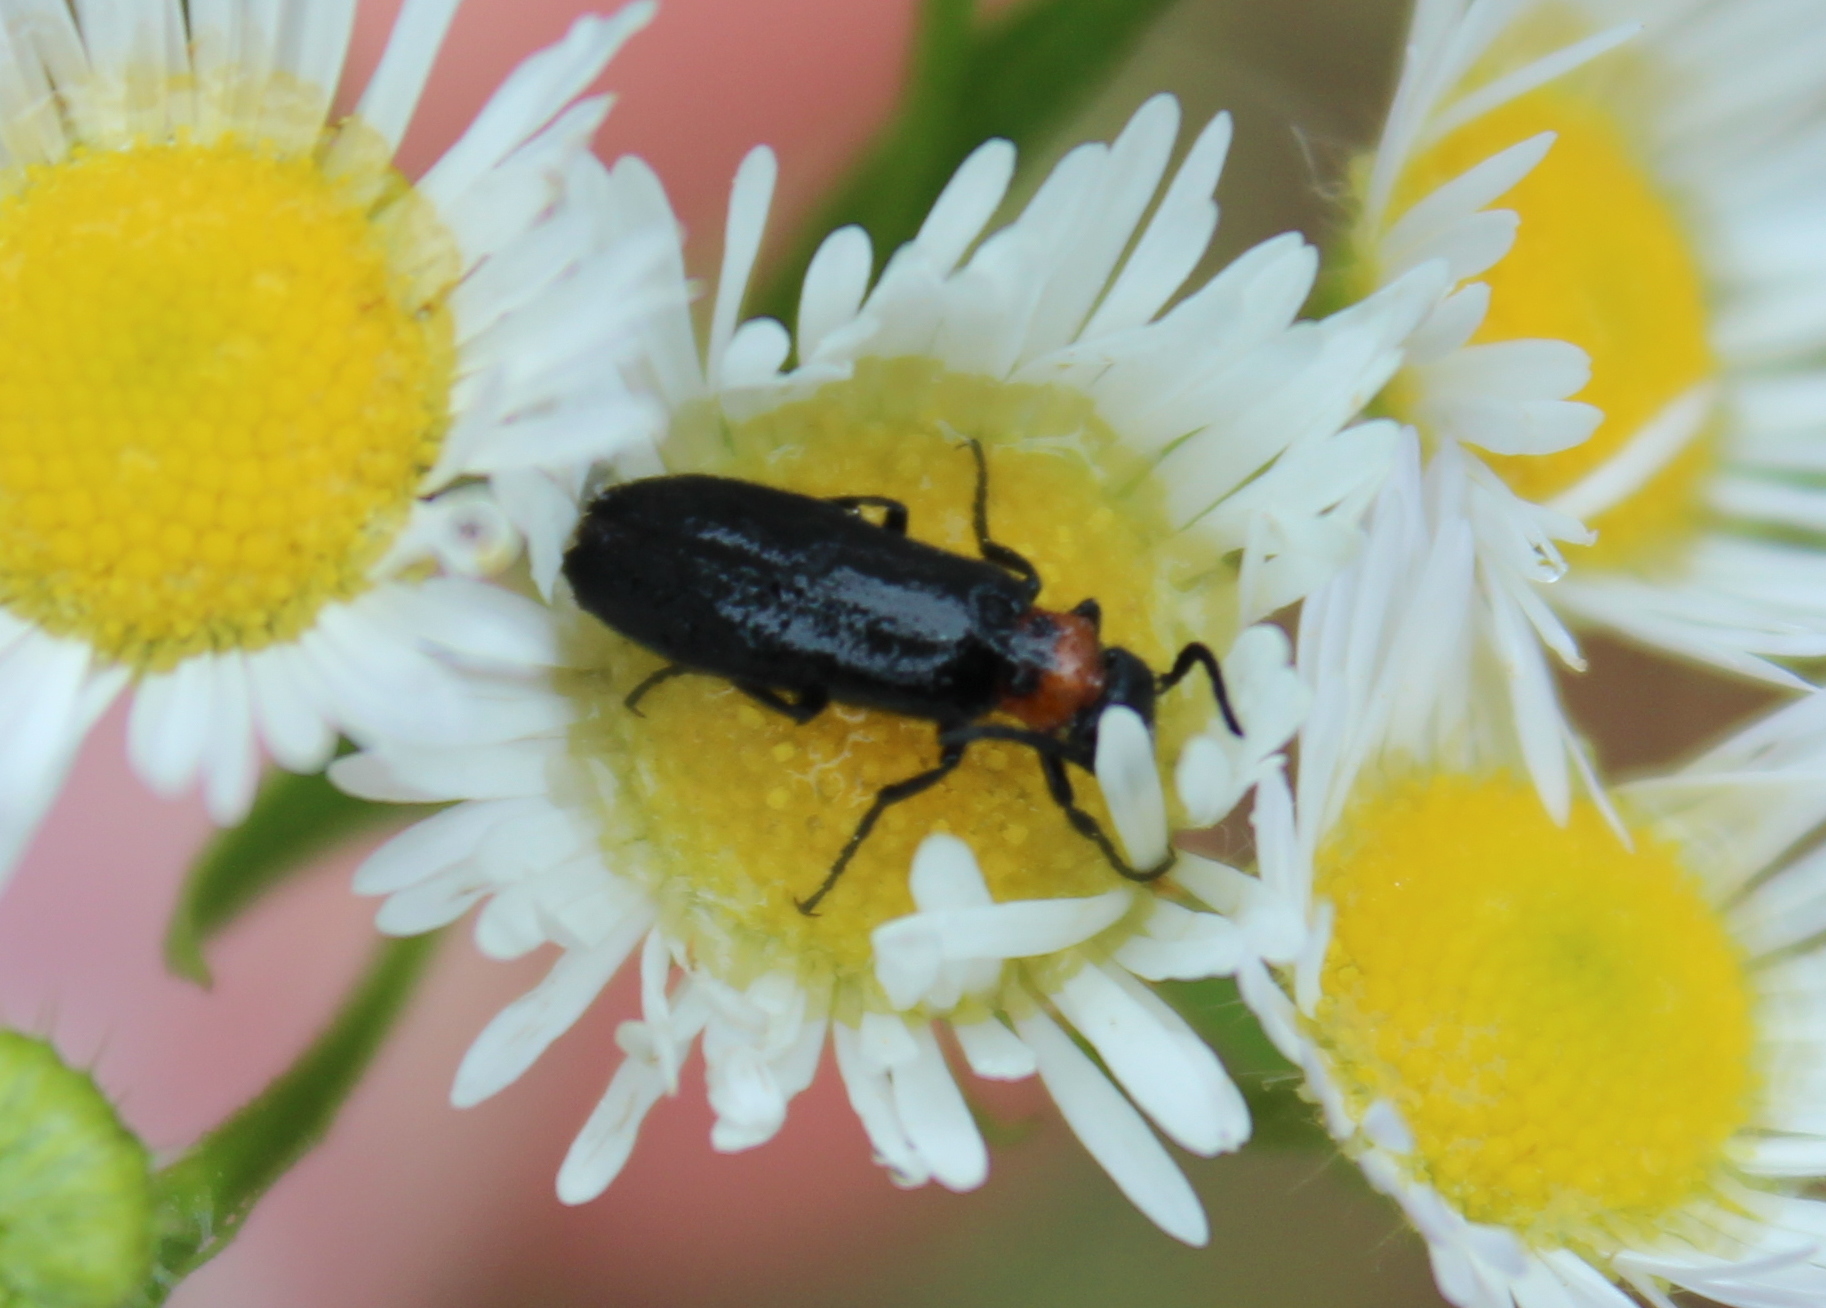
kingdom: Animalia
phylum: Arthropoda
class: Insecta
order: Coleoptera
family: Meloidae
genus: Nemognatha
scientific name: Nemognatha nemorensis
